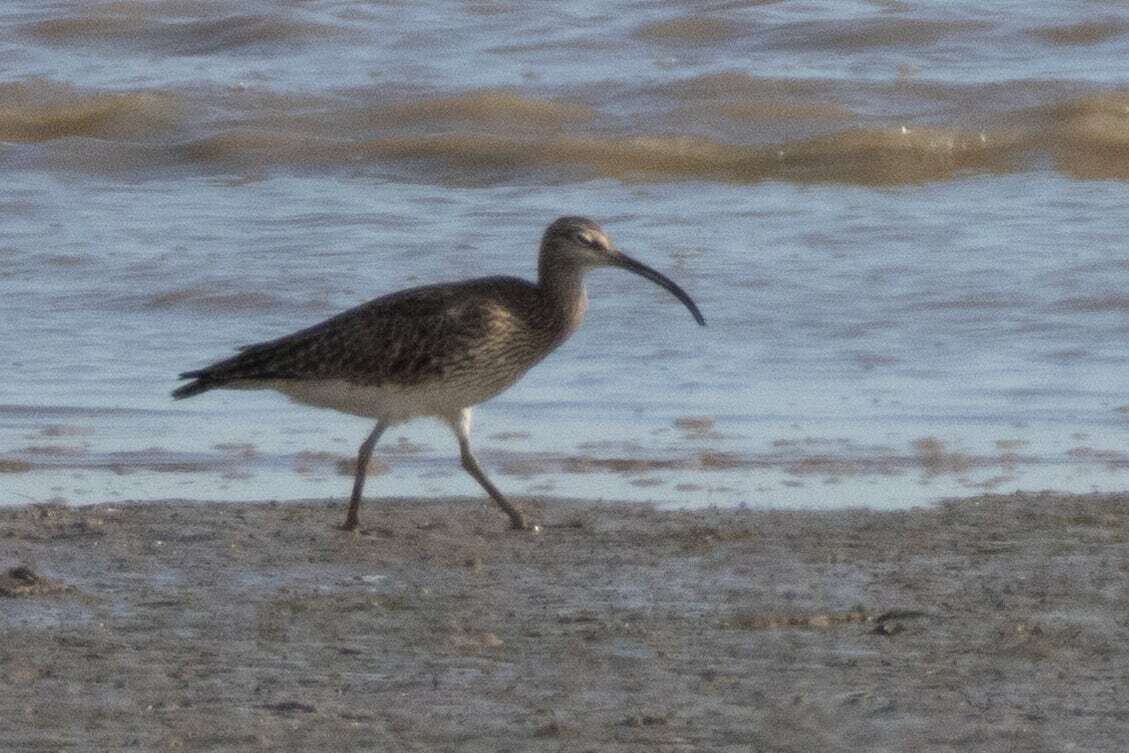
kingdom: Animalia
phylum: Chordata
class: Aves
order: Charadriiformes
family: Scolopacidae
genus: Numenius
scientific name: Numenius phaeopus
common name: Whimbrel
